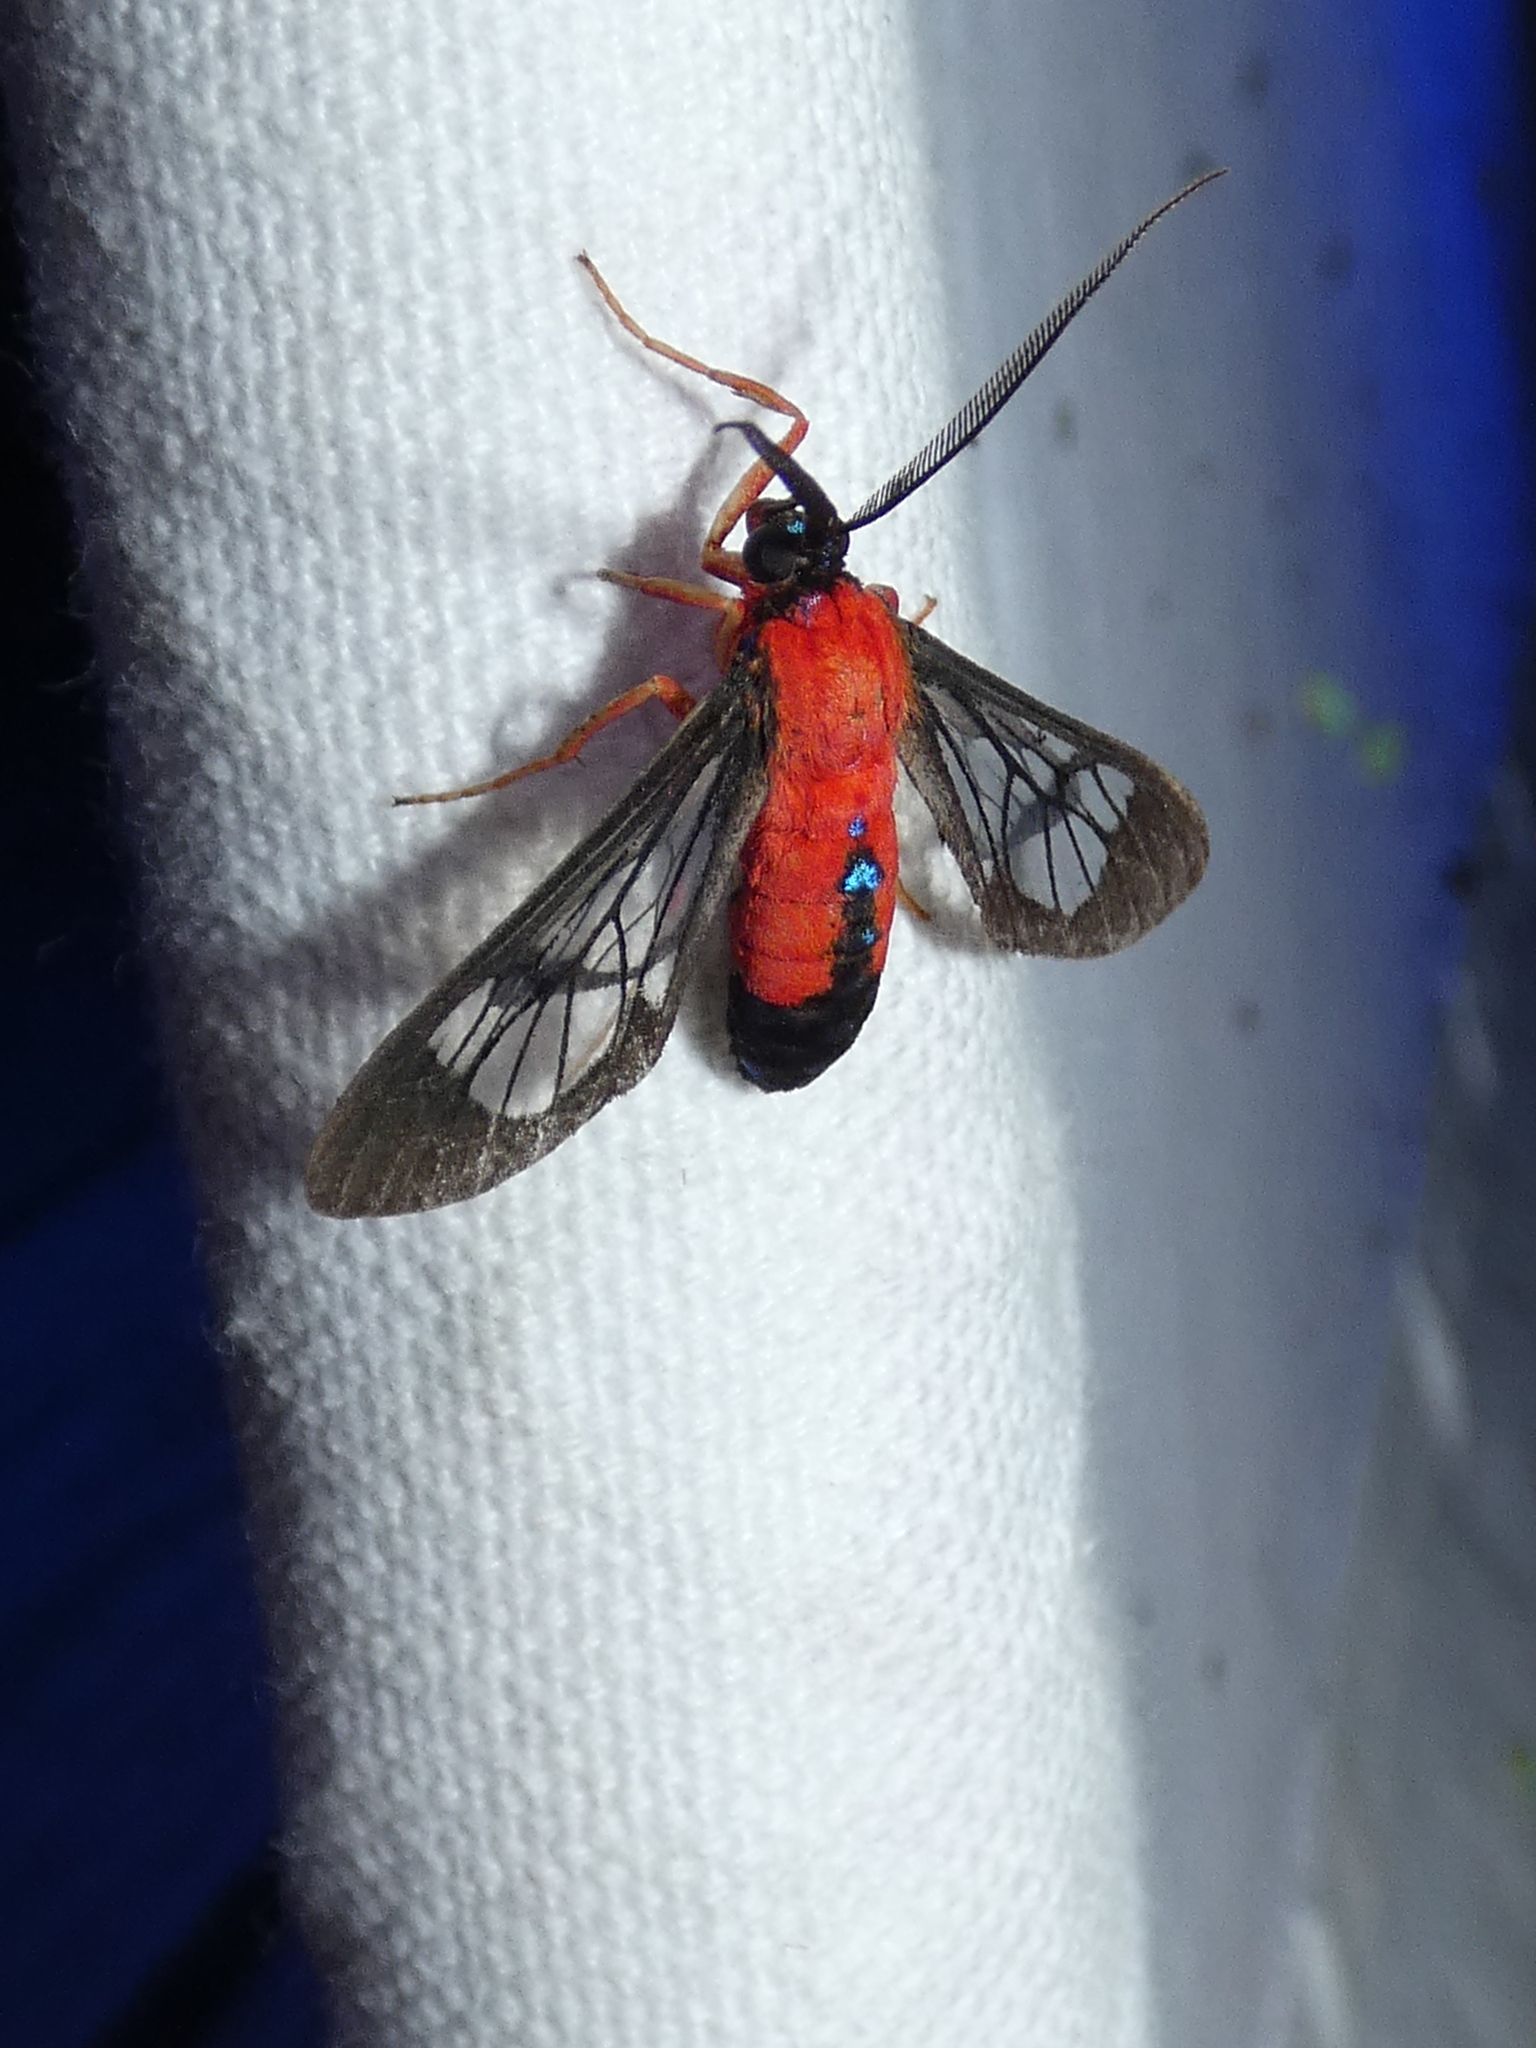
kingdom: Animalia
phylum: Arthropoda
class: Insecta
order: Lepidoptera
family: Erebidae
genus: Cosmosoma
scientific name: Cosmosoma myrodora
